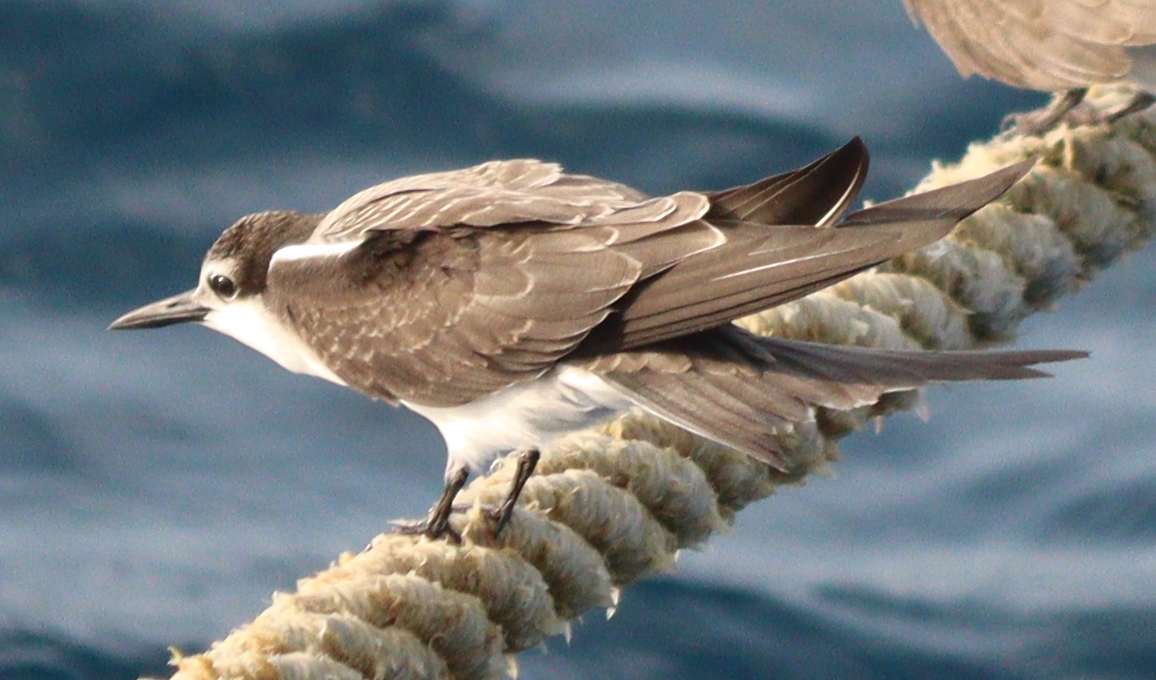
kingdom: Animalia
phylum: Chordata
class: Aves
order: Charadriiformes
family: Laridae
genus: Onychoprion
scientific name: Onychoprion anaethetus
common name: Bridled tern
